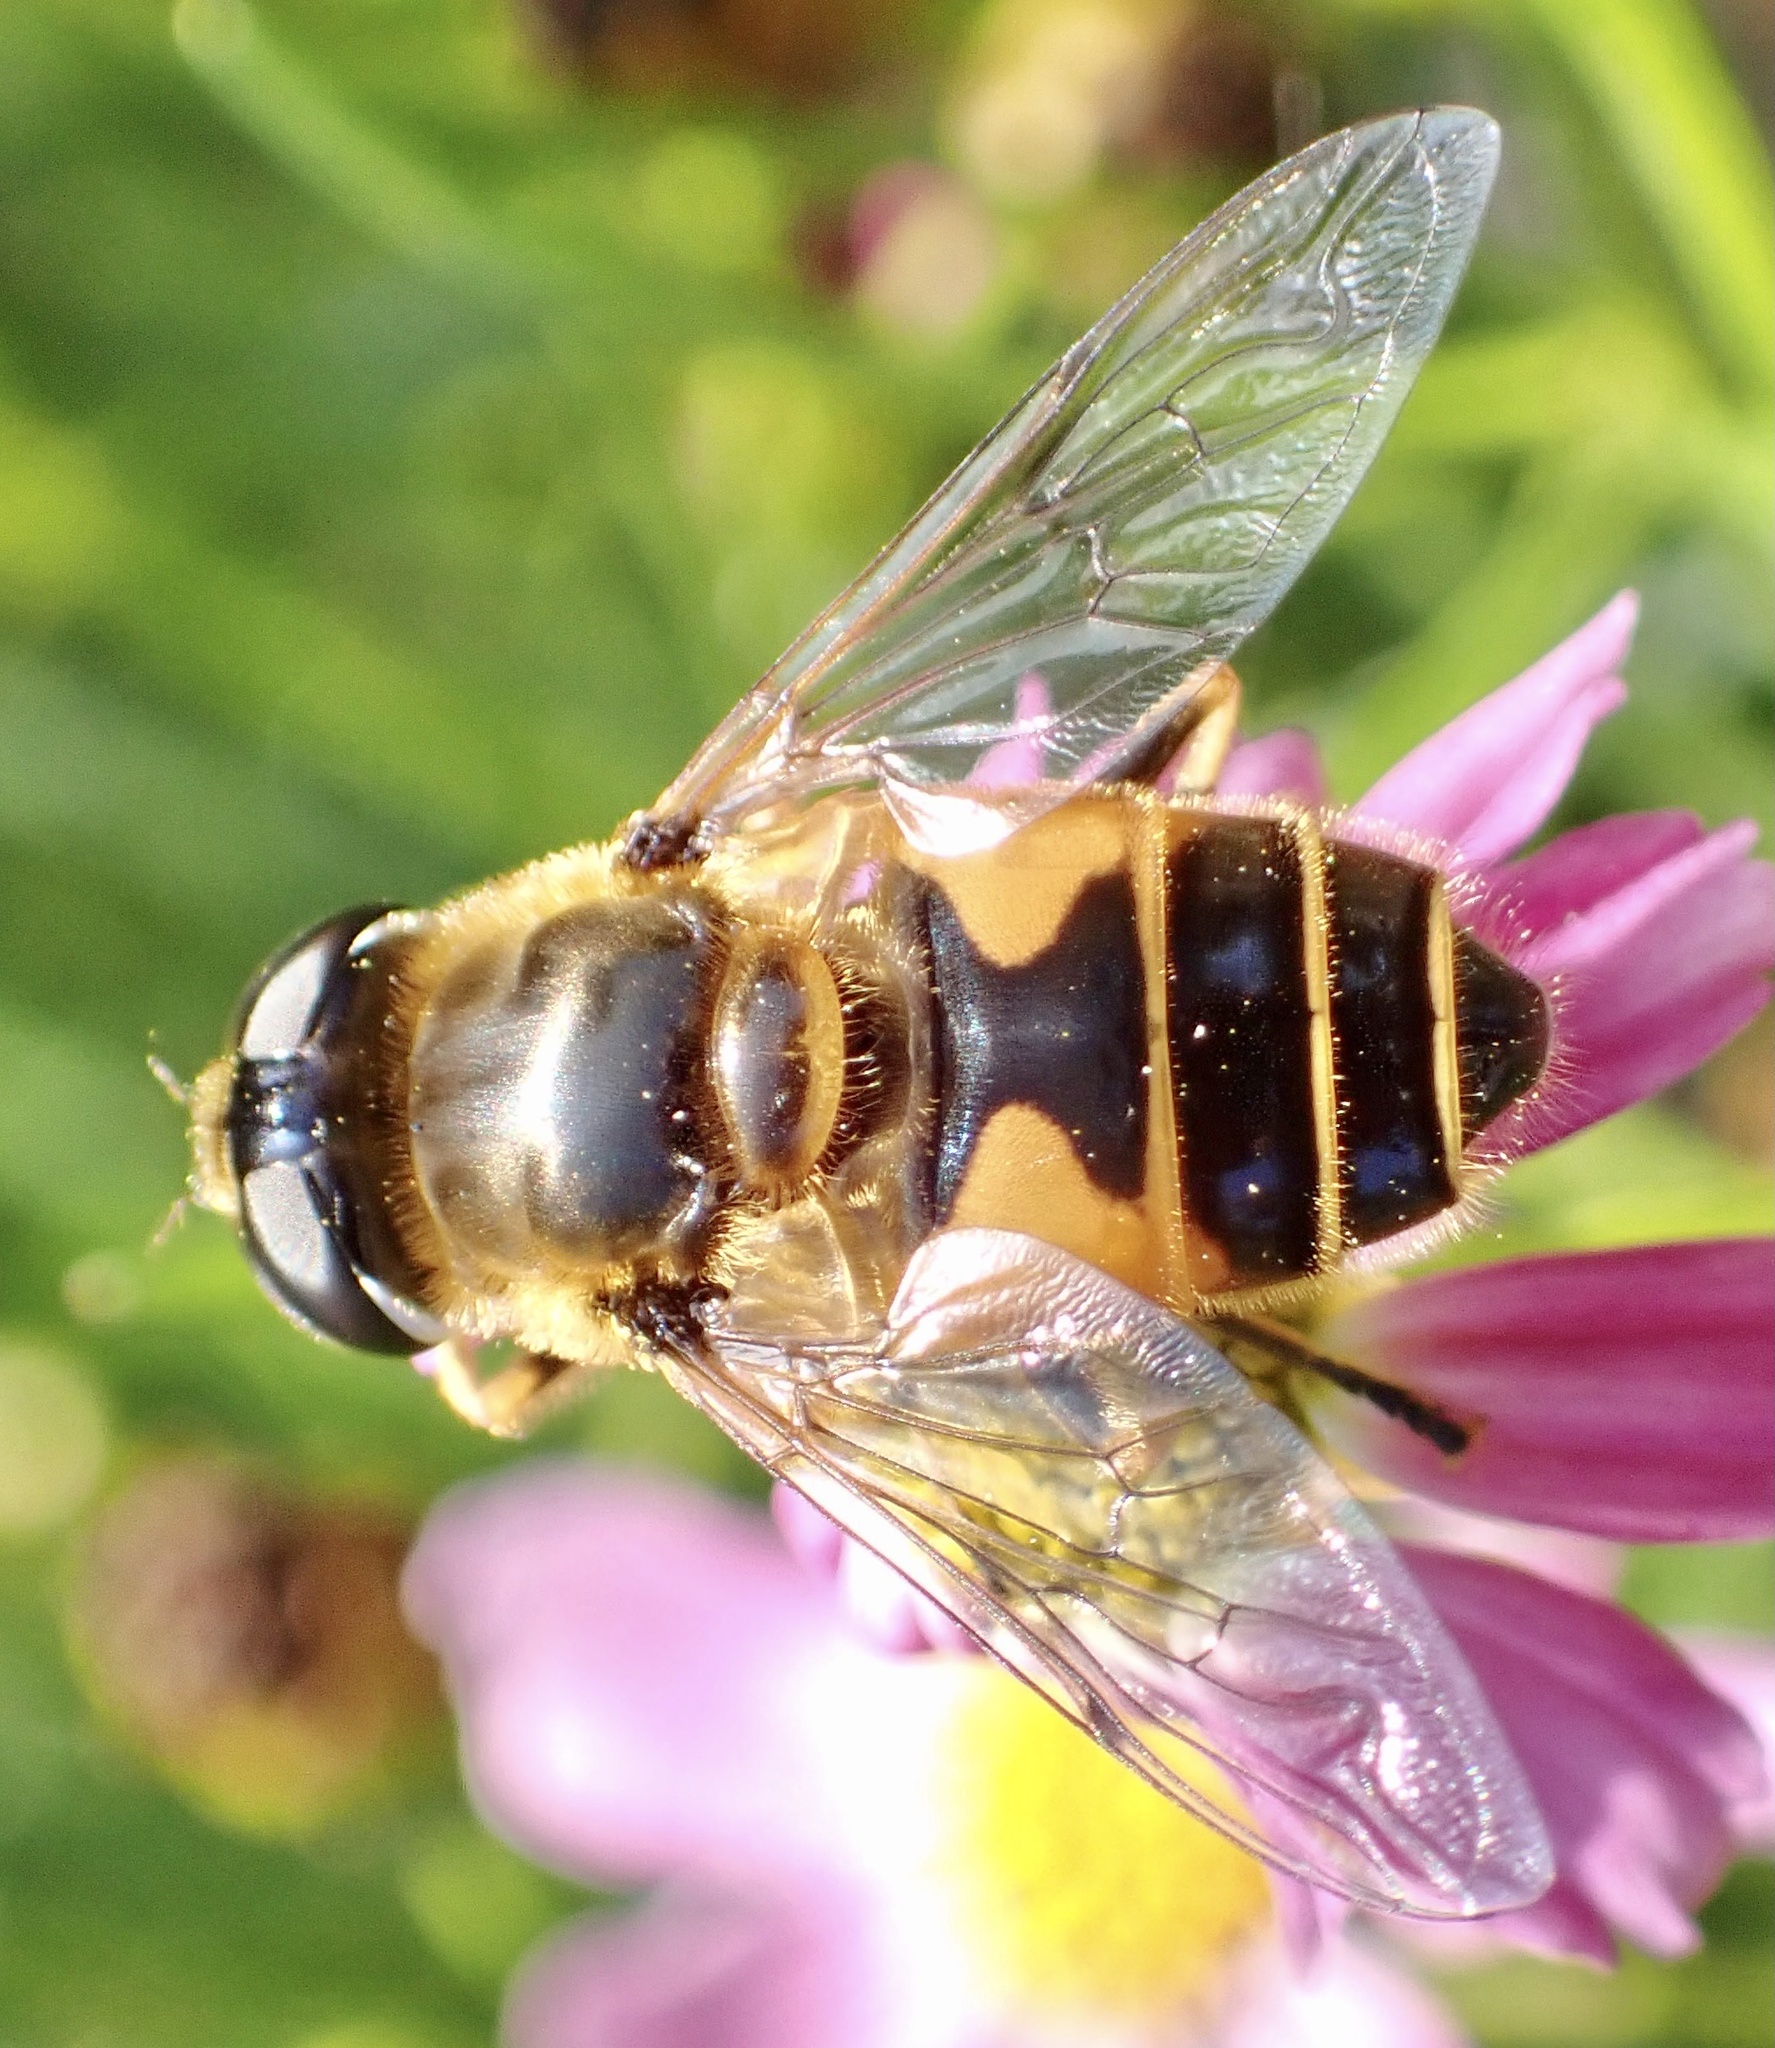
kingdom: Animalia
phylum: Arthropoda
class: Insecta
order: Diptera
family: Syrphidae
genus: Cheilosia
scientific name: Cheilosia morio
